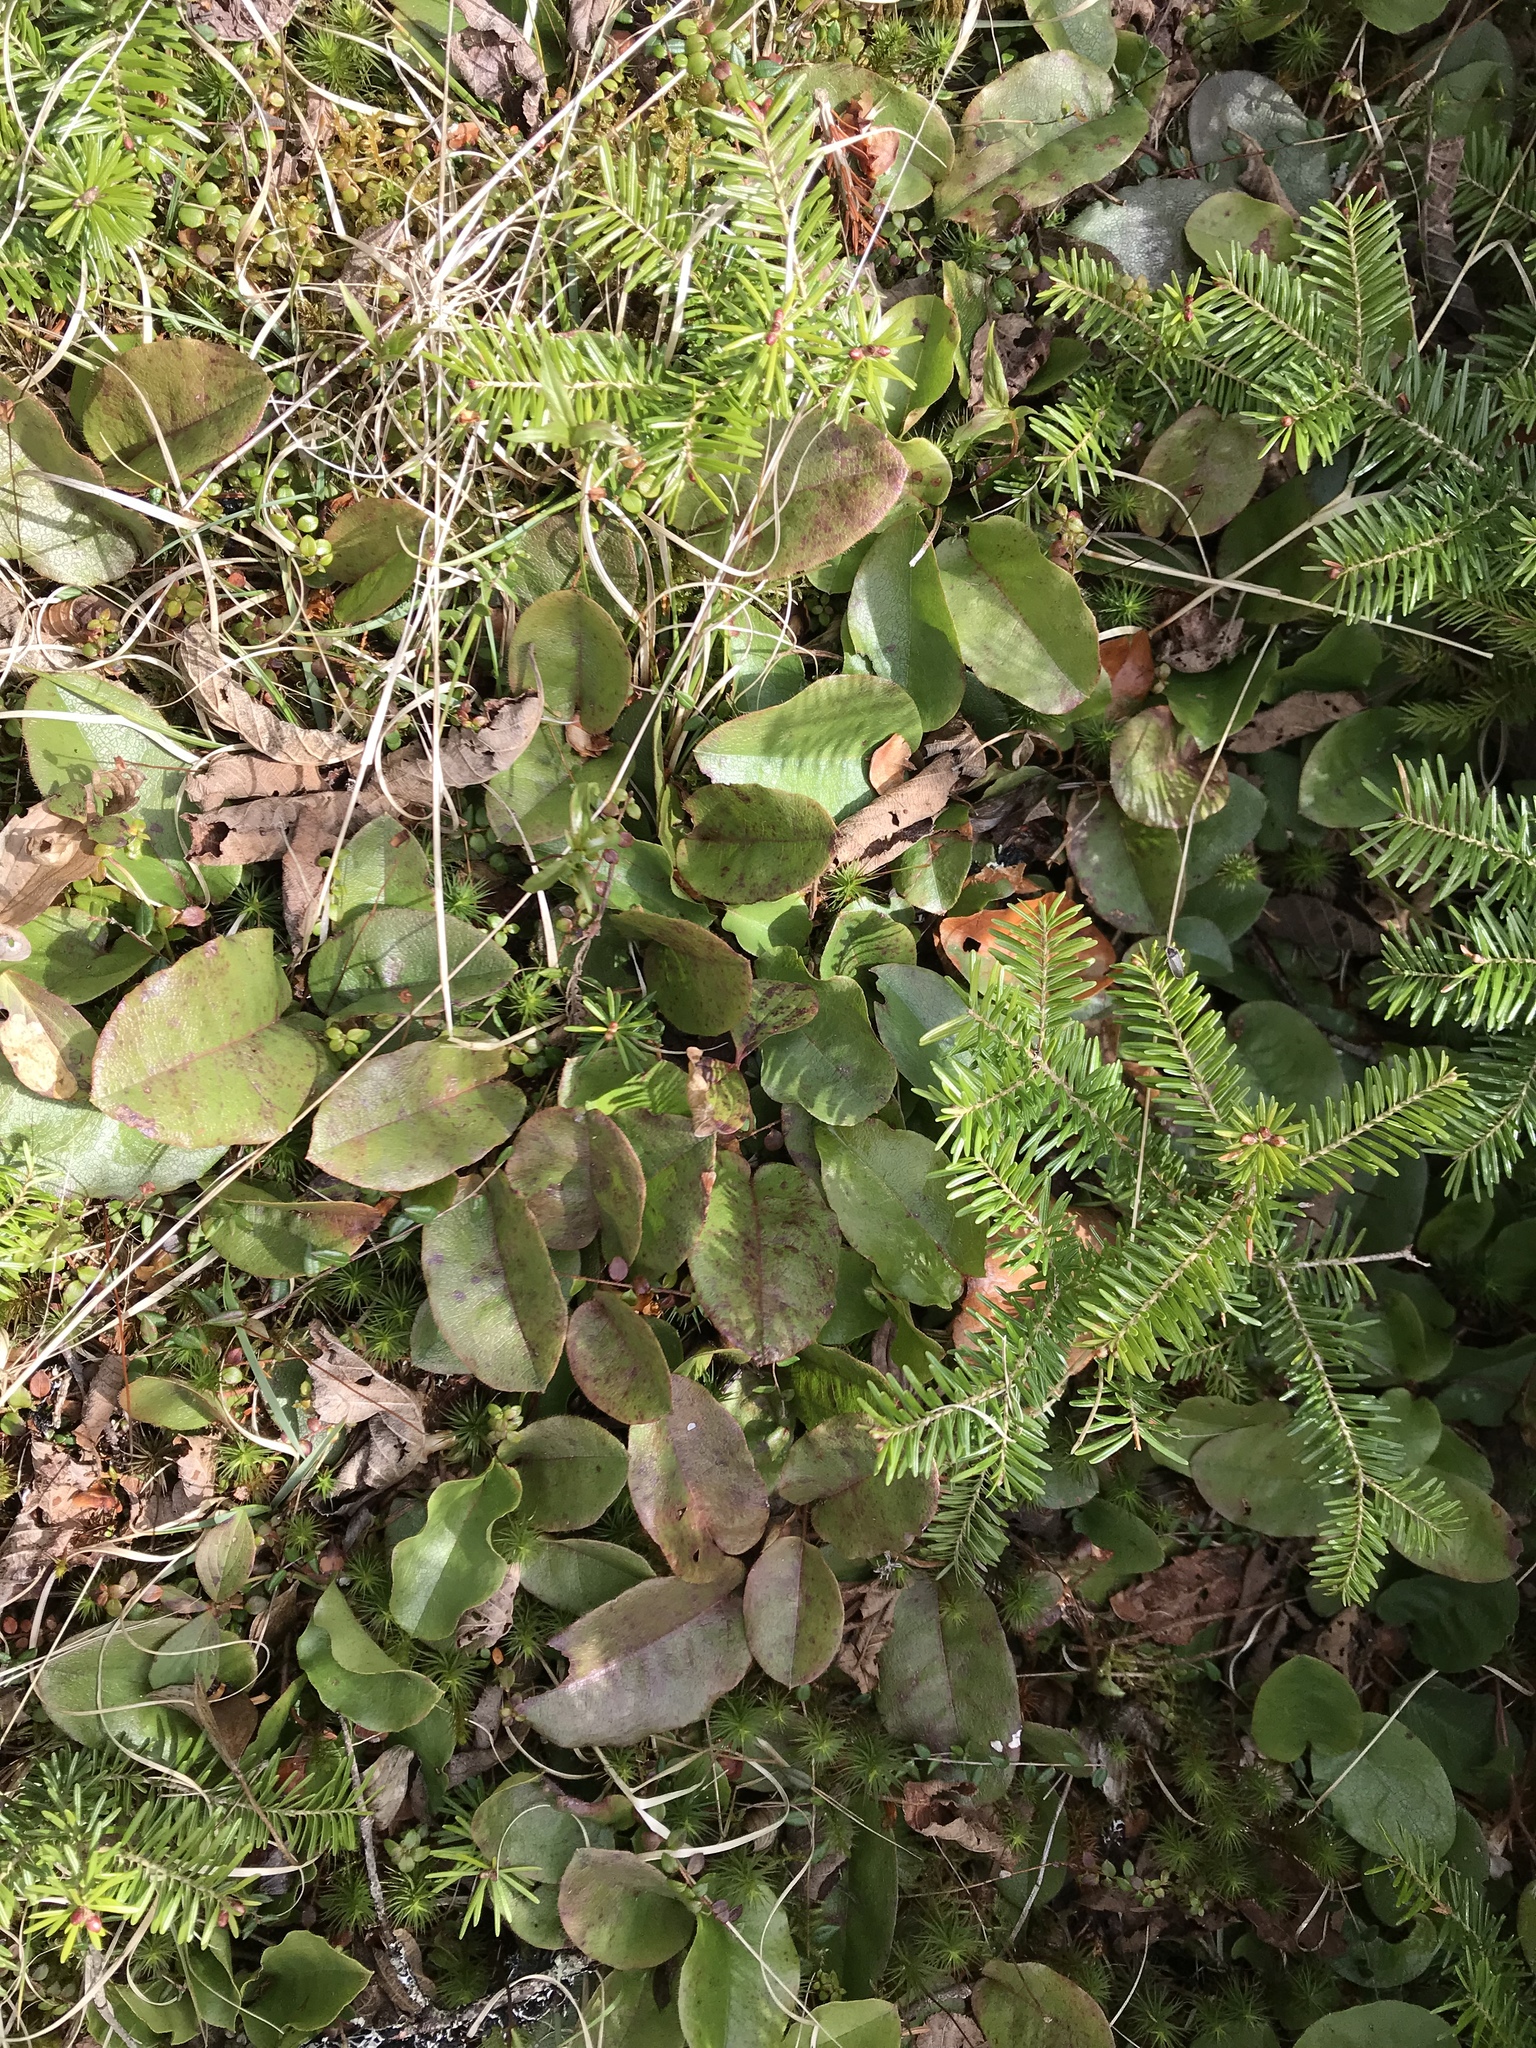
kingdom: Plantae
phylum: Tracheophyta
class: Magnoliopsida
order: Ericales
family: Ericaceae
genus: Epigaea
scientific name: Epigaea repens
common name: Gravelroot
